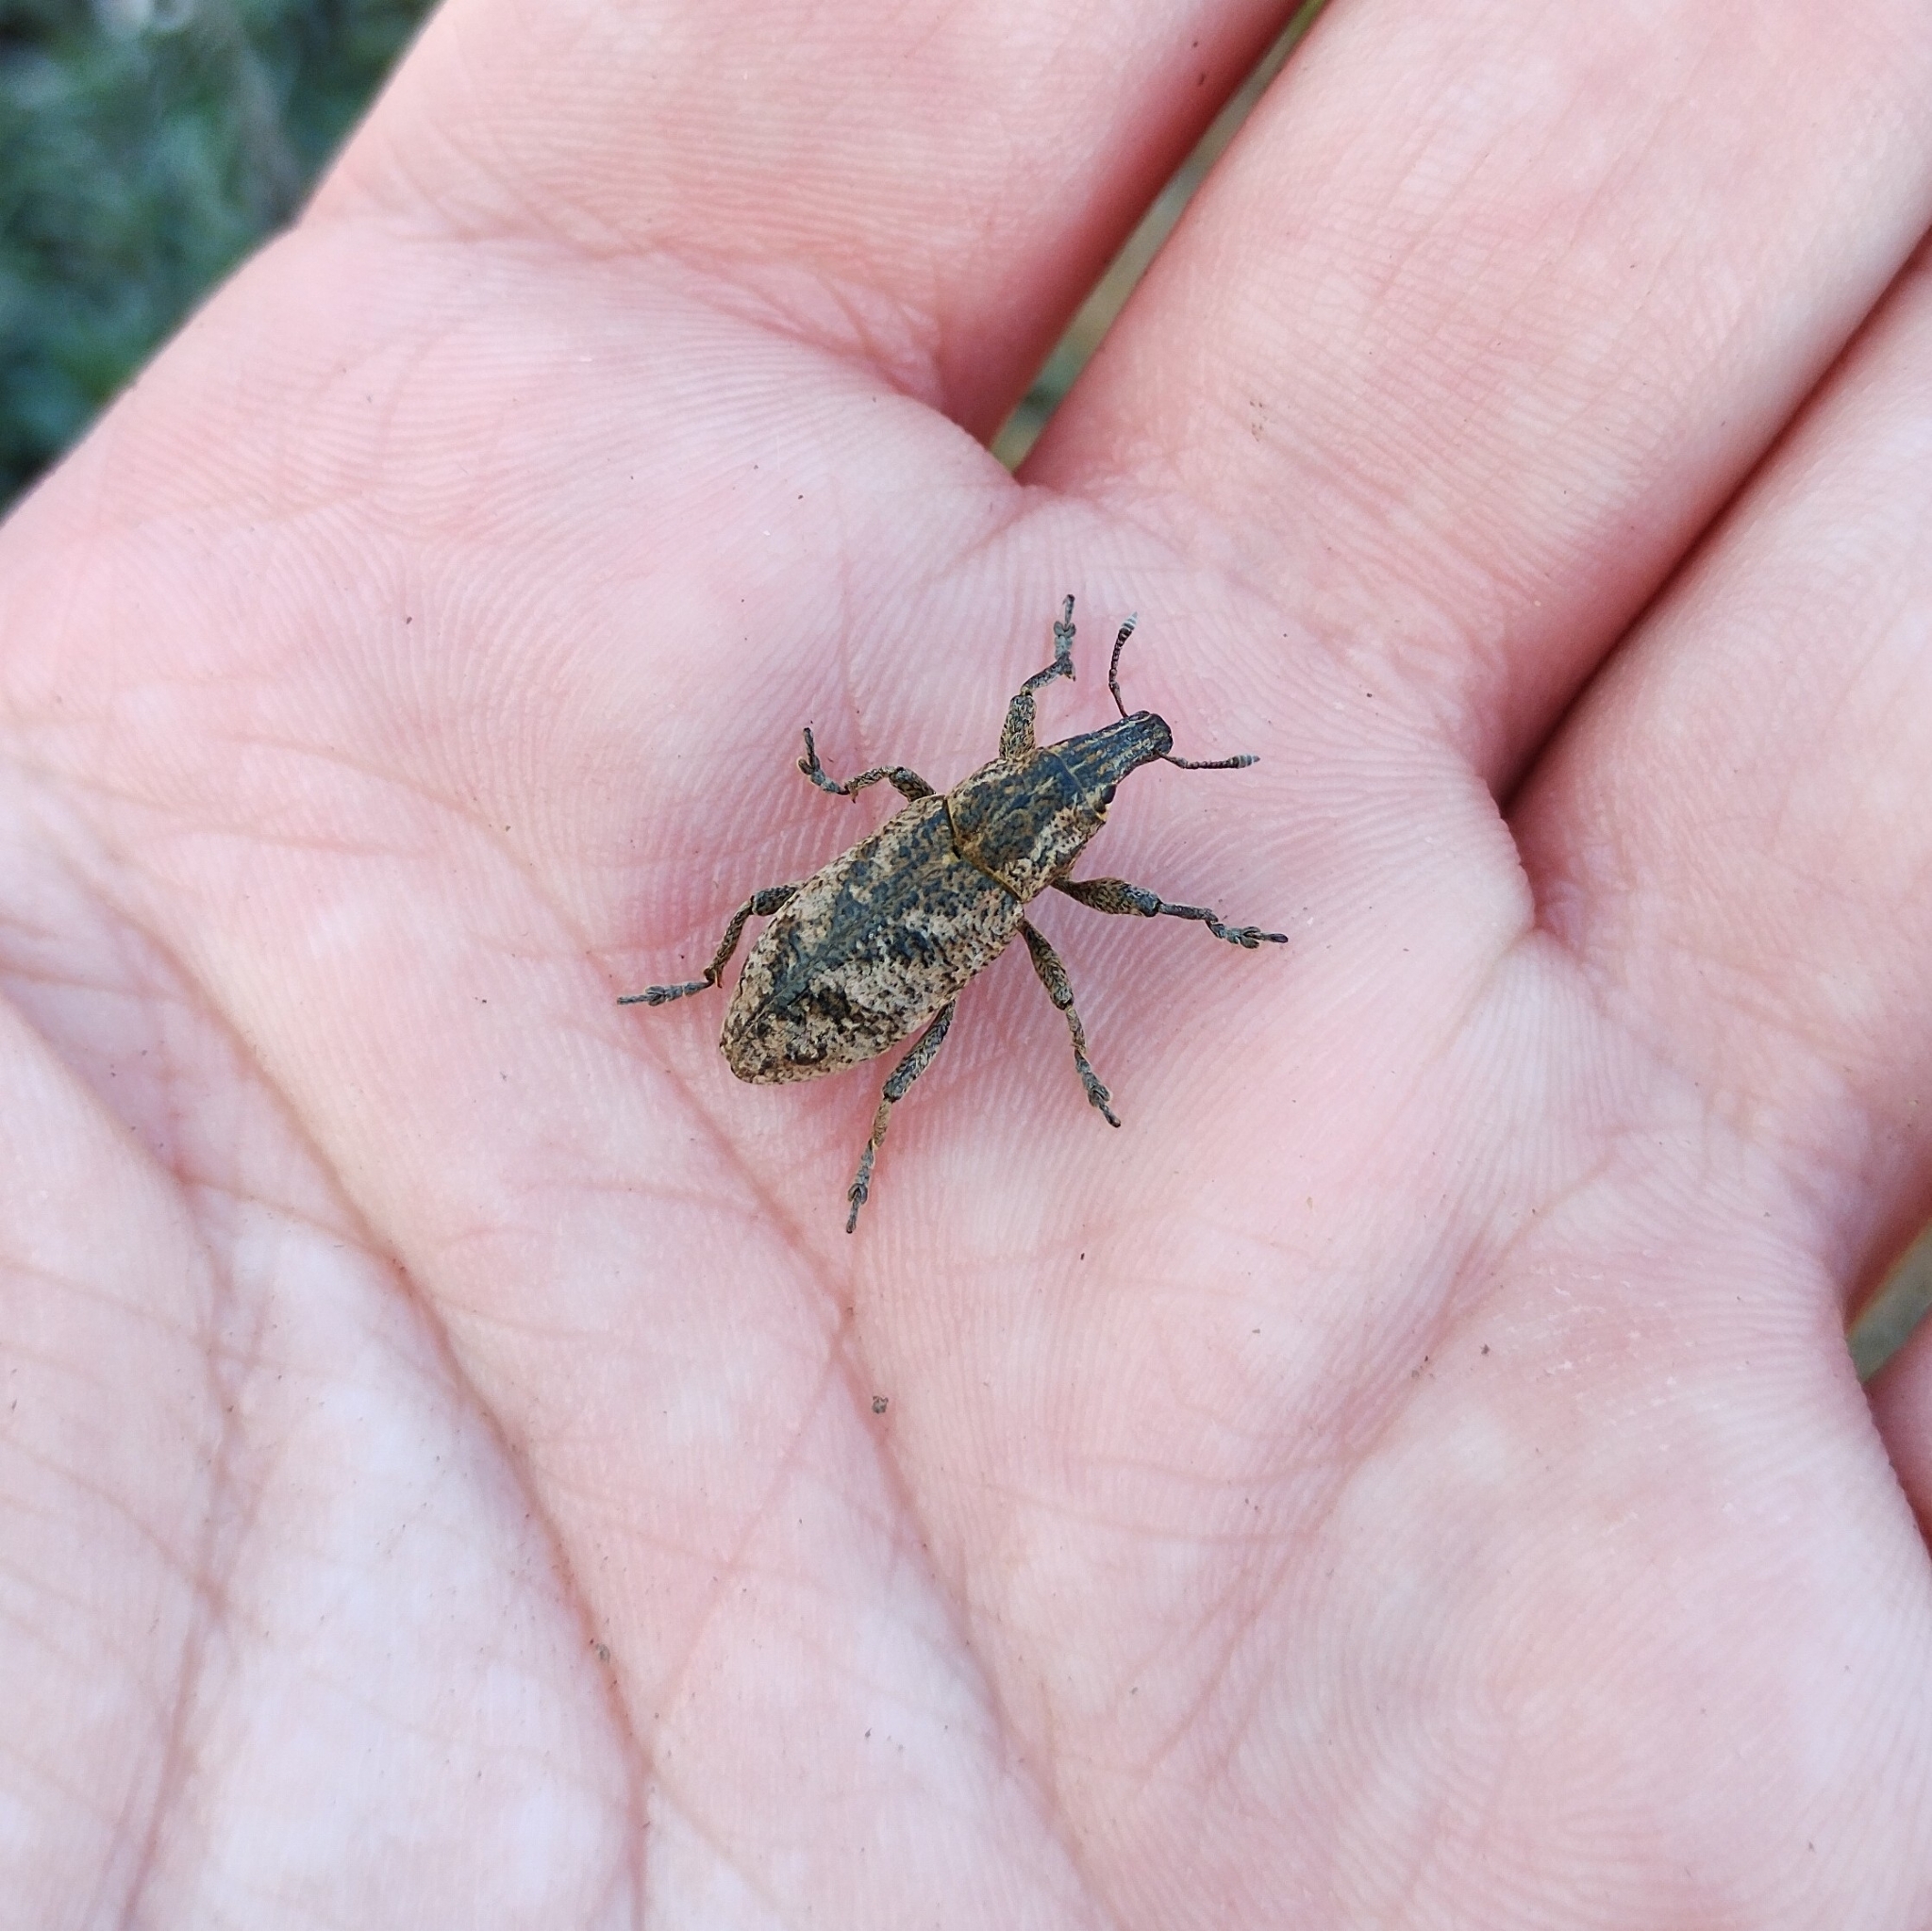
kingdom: Animalia
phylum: Arthropoda
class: Insecta
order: Coleoptera
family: Curculionidae
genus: Cleonis
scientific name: Cleonis pigra
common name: Large thistle weevil
